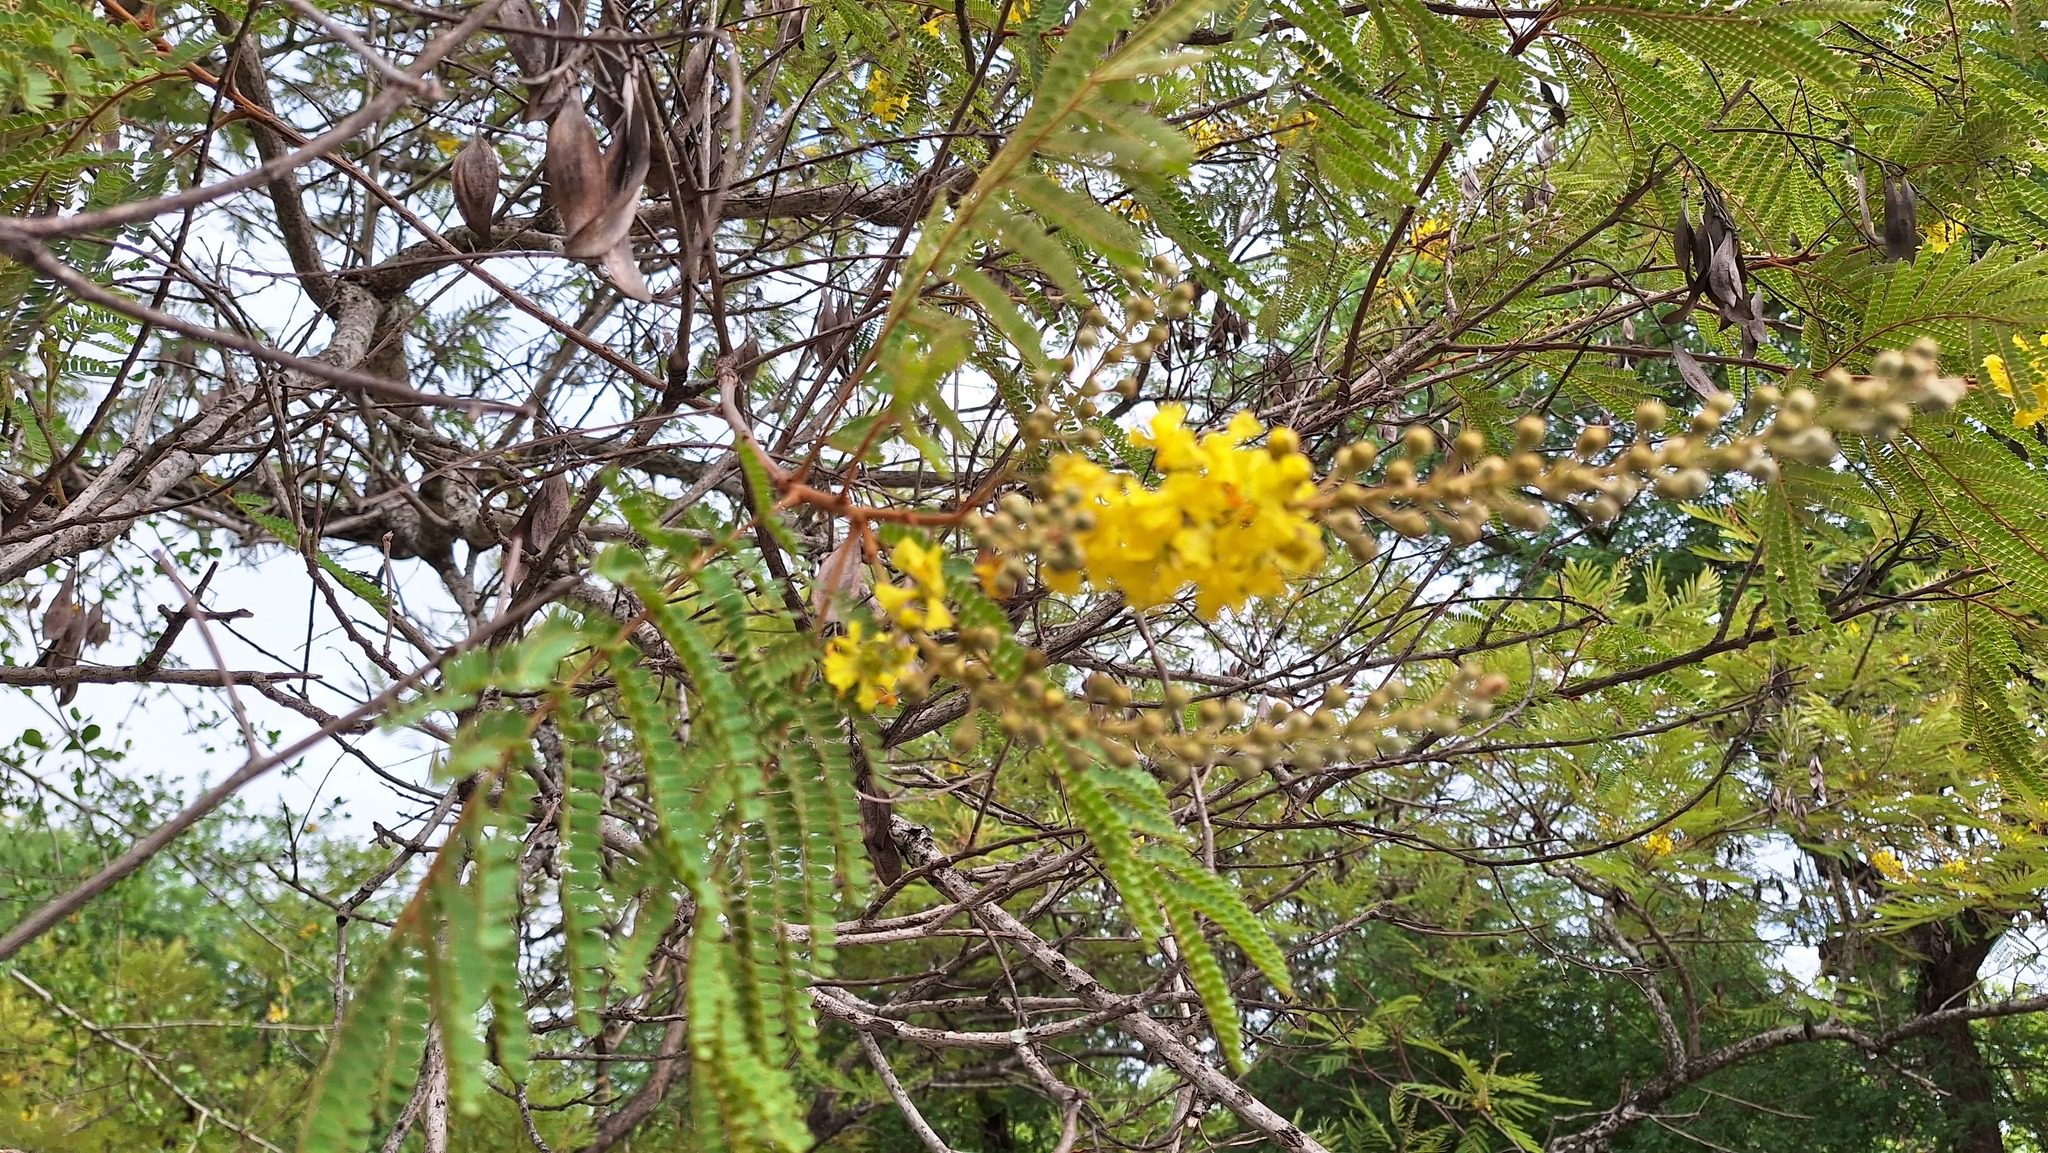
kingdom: Plantae
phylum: Tracheophyta
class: Magnoliopsida
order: Fabales
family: Fabaceae
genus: Peltophorum
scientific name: Peltophorum africanum
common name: African black wattle
